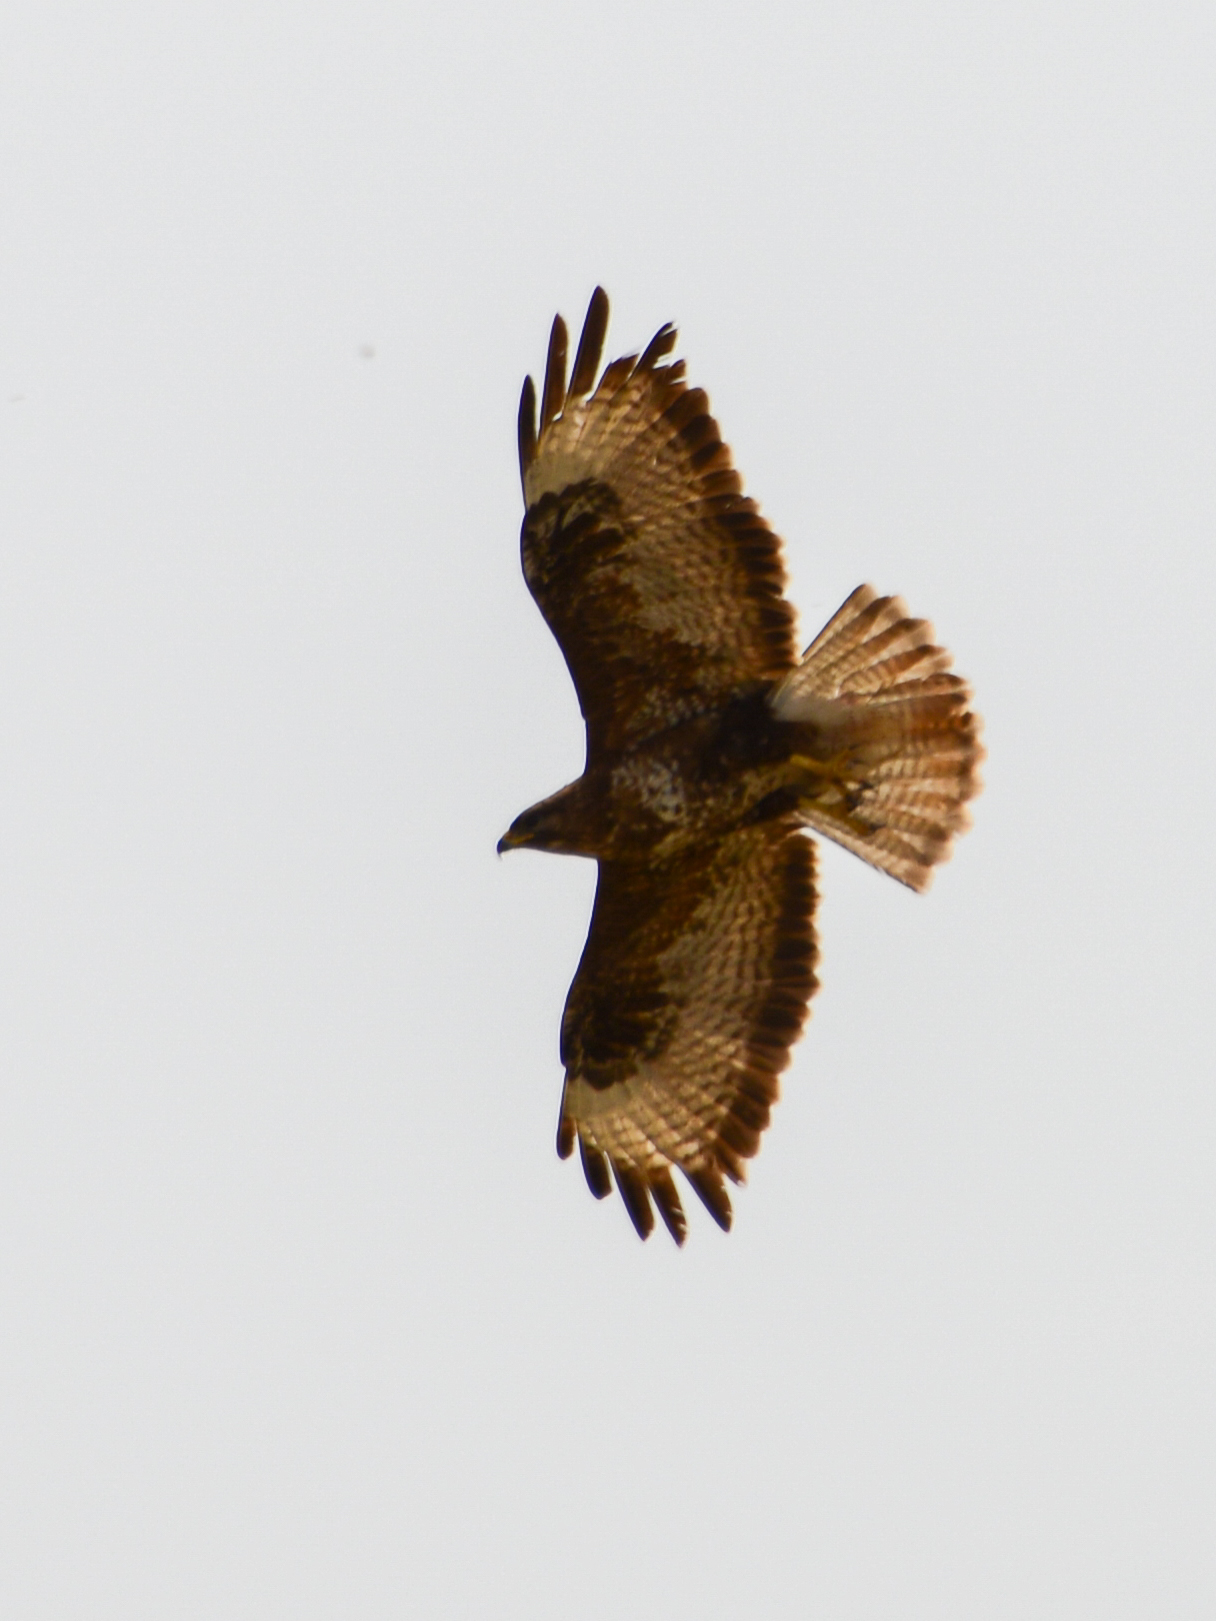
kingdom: Animalia
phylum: Chordata
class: Aves
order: Accipitriformes
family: Accipitridae
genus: Buteo
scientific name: Buteo buteo
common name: Common buzzard
